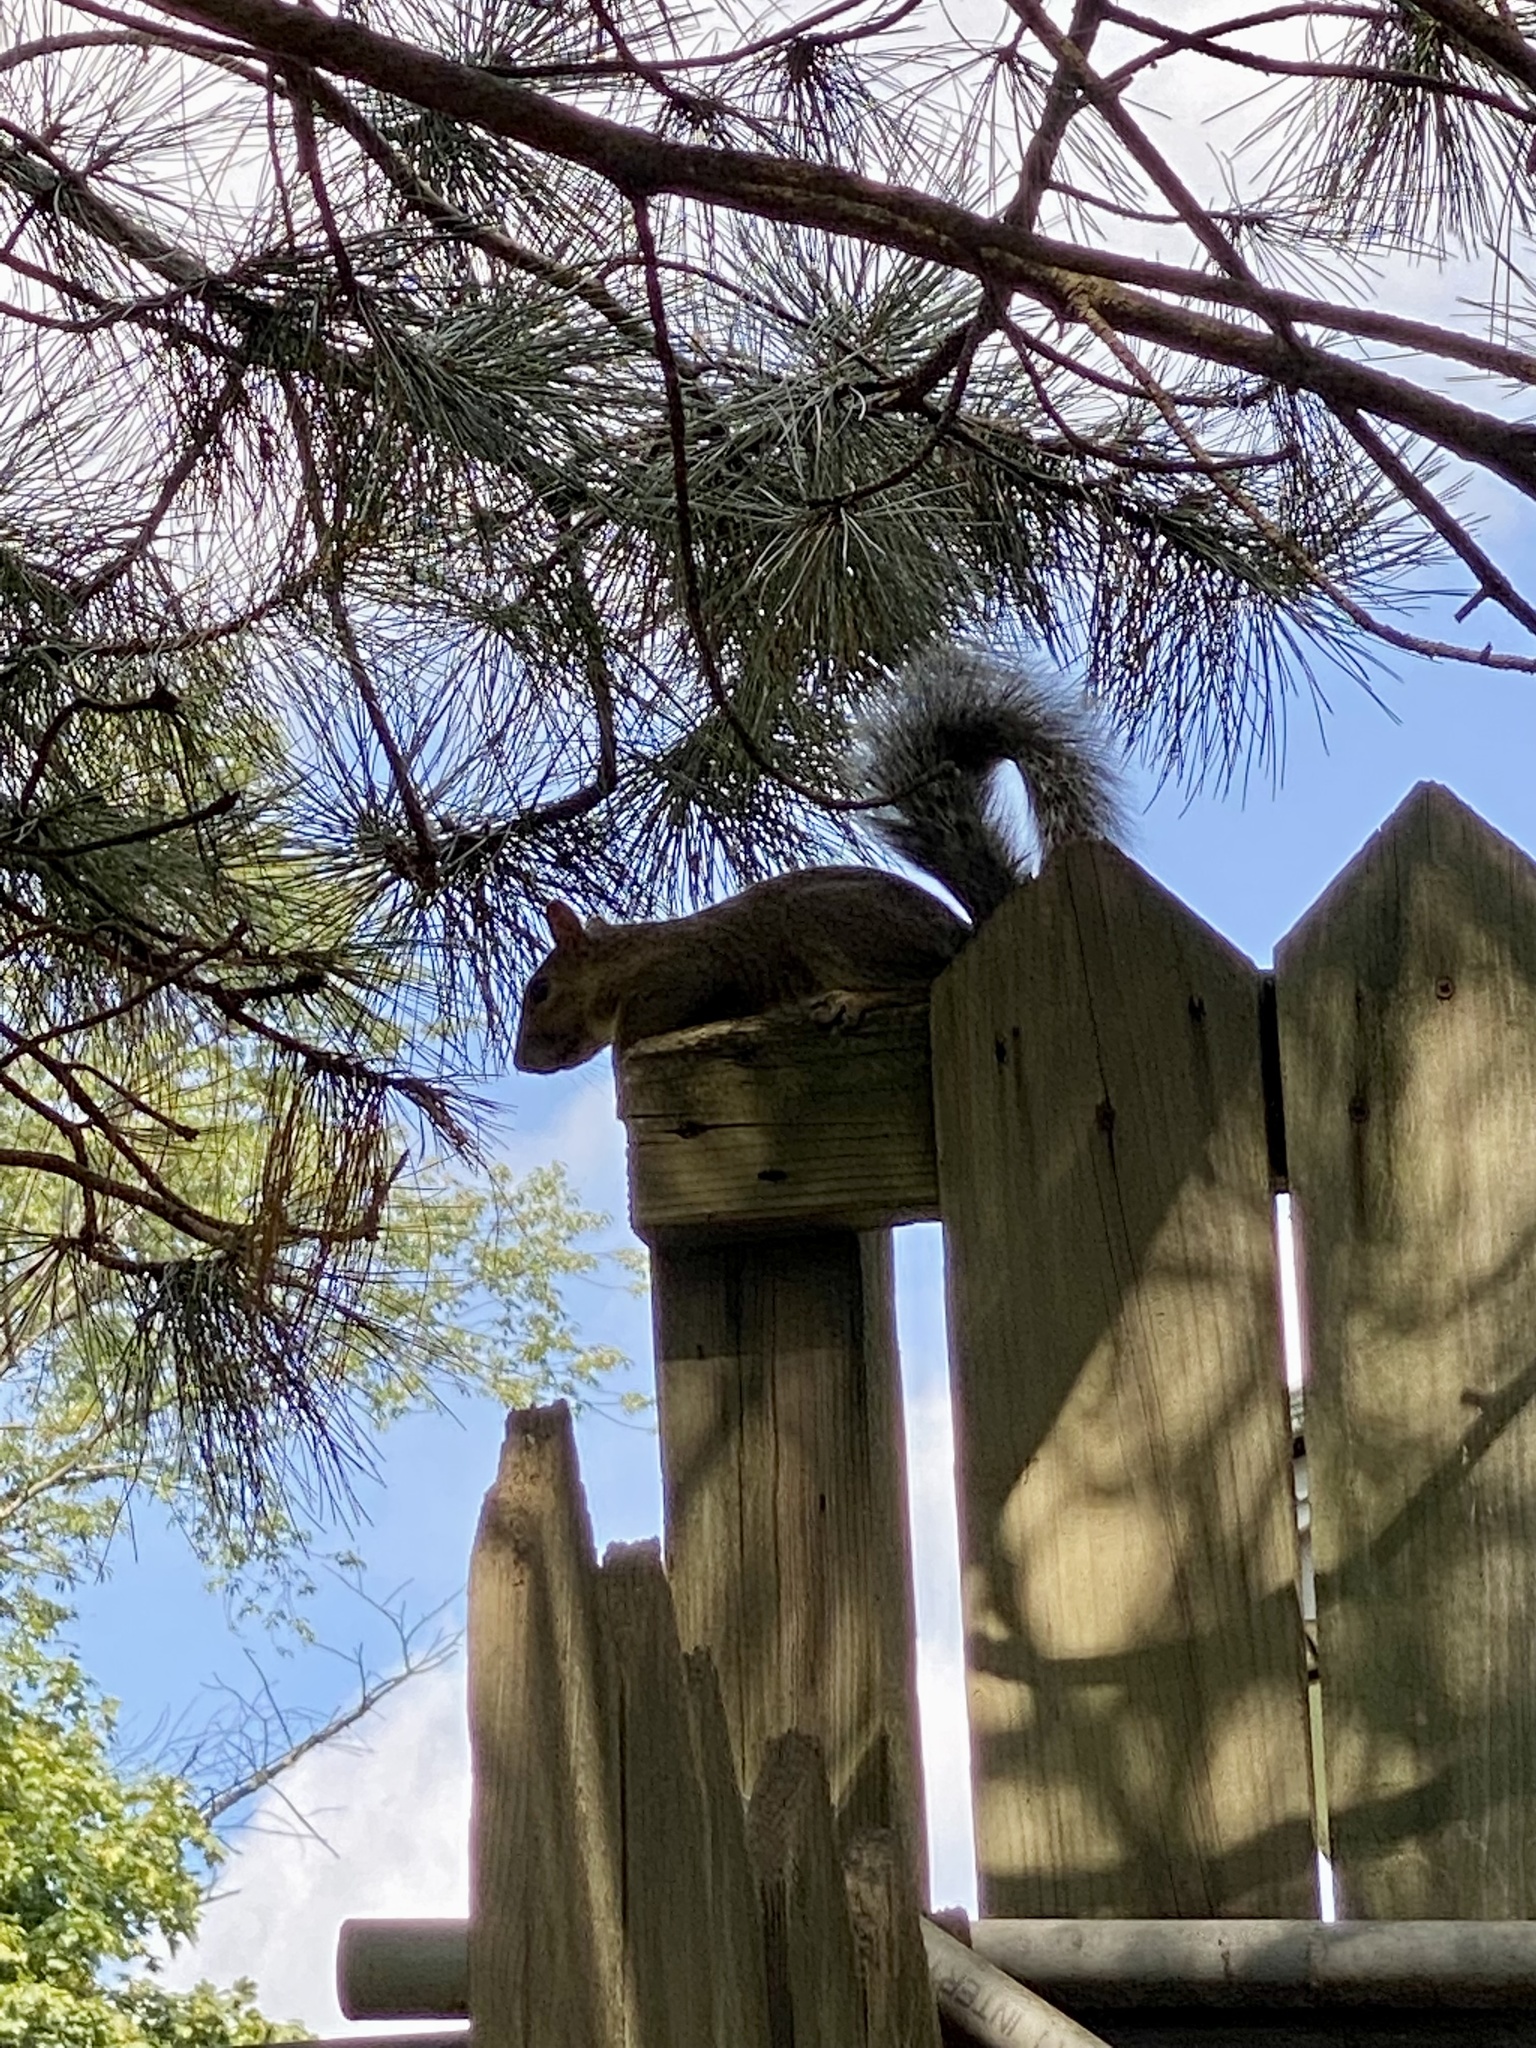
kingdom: Animalia
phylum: Chordata
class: Mammalia
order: Rodentia
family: Sciuridae
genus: Sciurus
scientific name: Sciurus carolinensis
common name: Eastern gray squirrel
